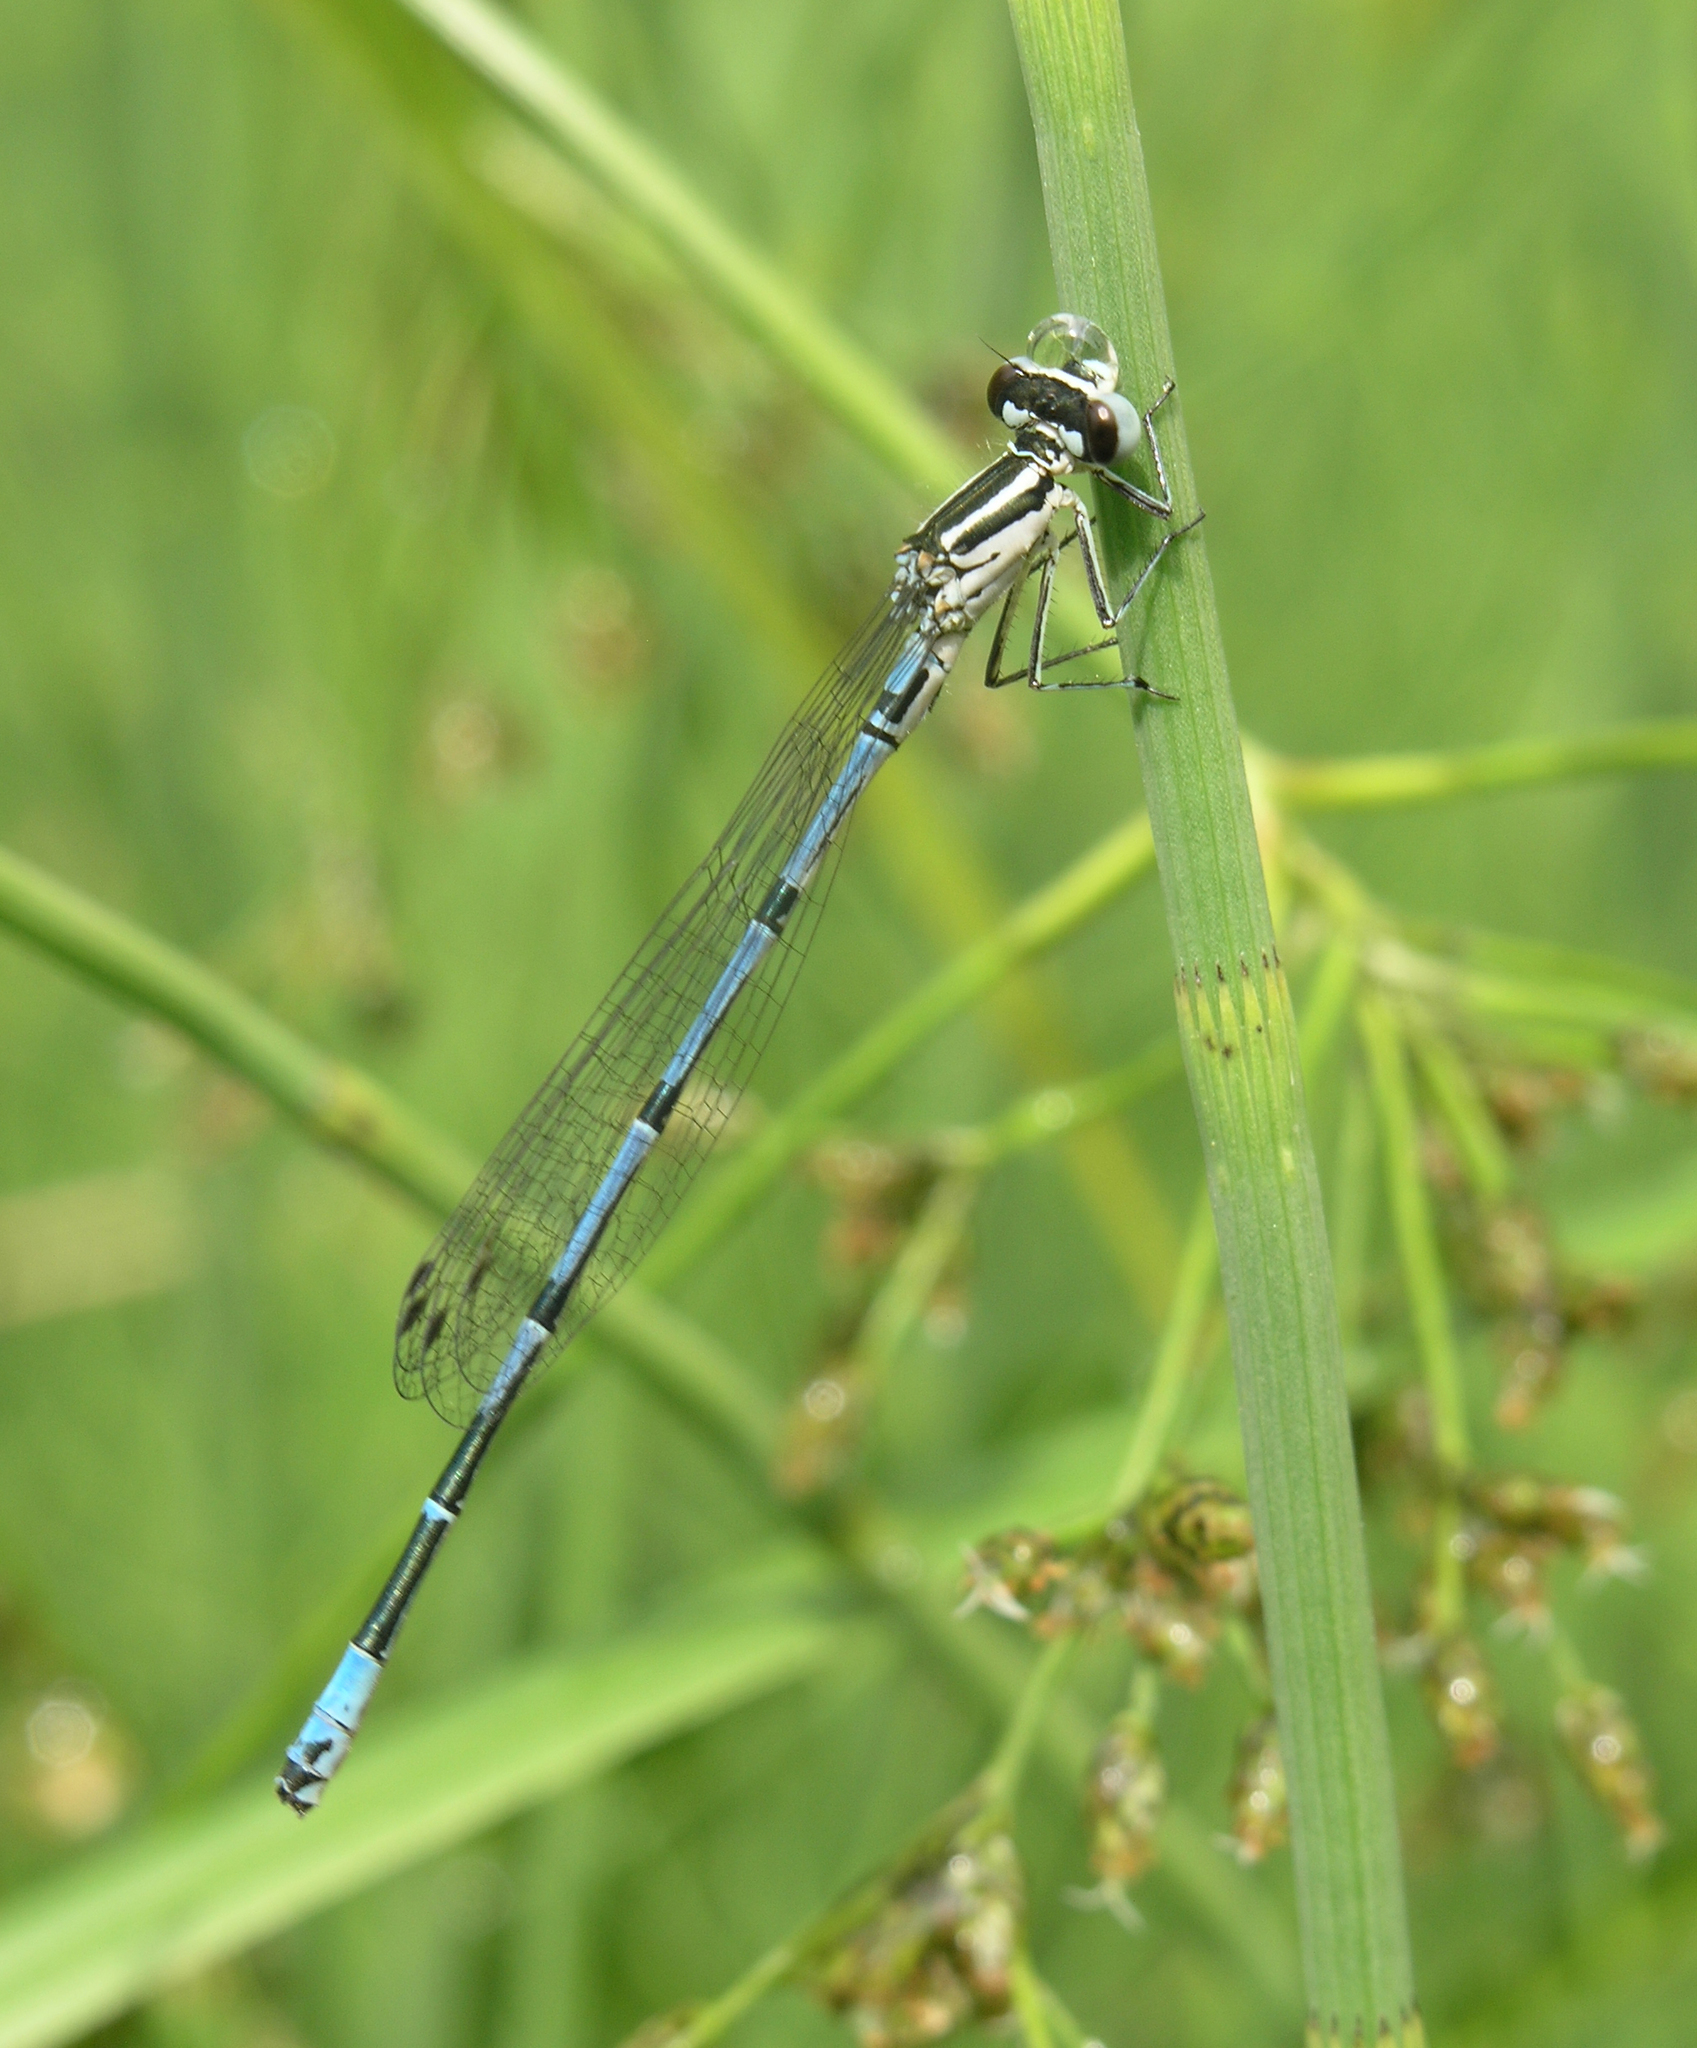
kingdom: Animalia
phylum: Arthropoda
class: Insecta
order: Odonata
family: Coenagrionidae
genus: Coenagrion
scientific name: Coenagrion puella
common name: Azure damselfly
